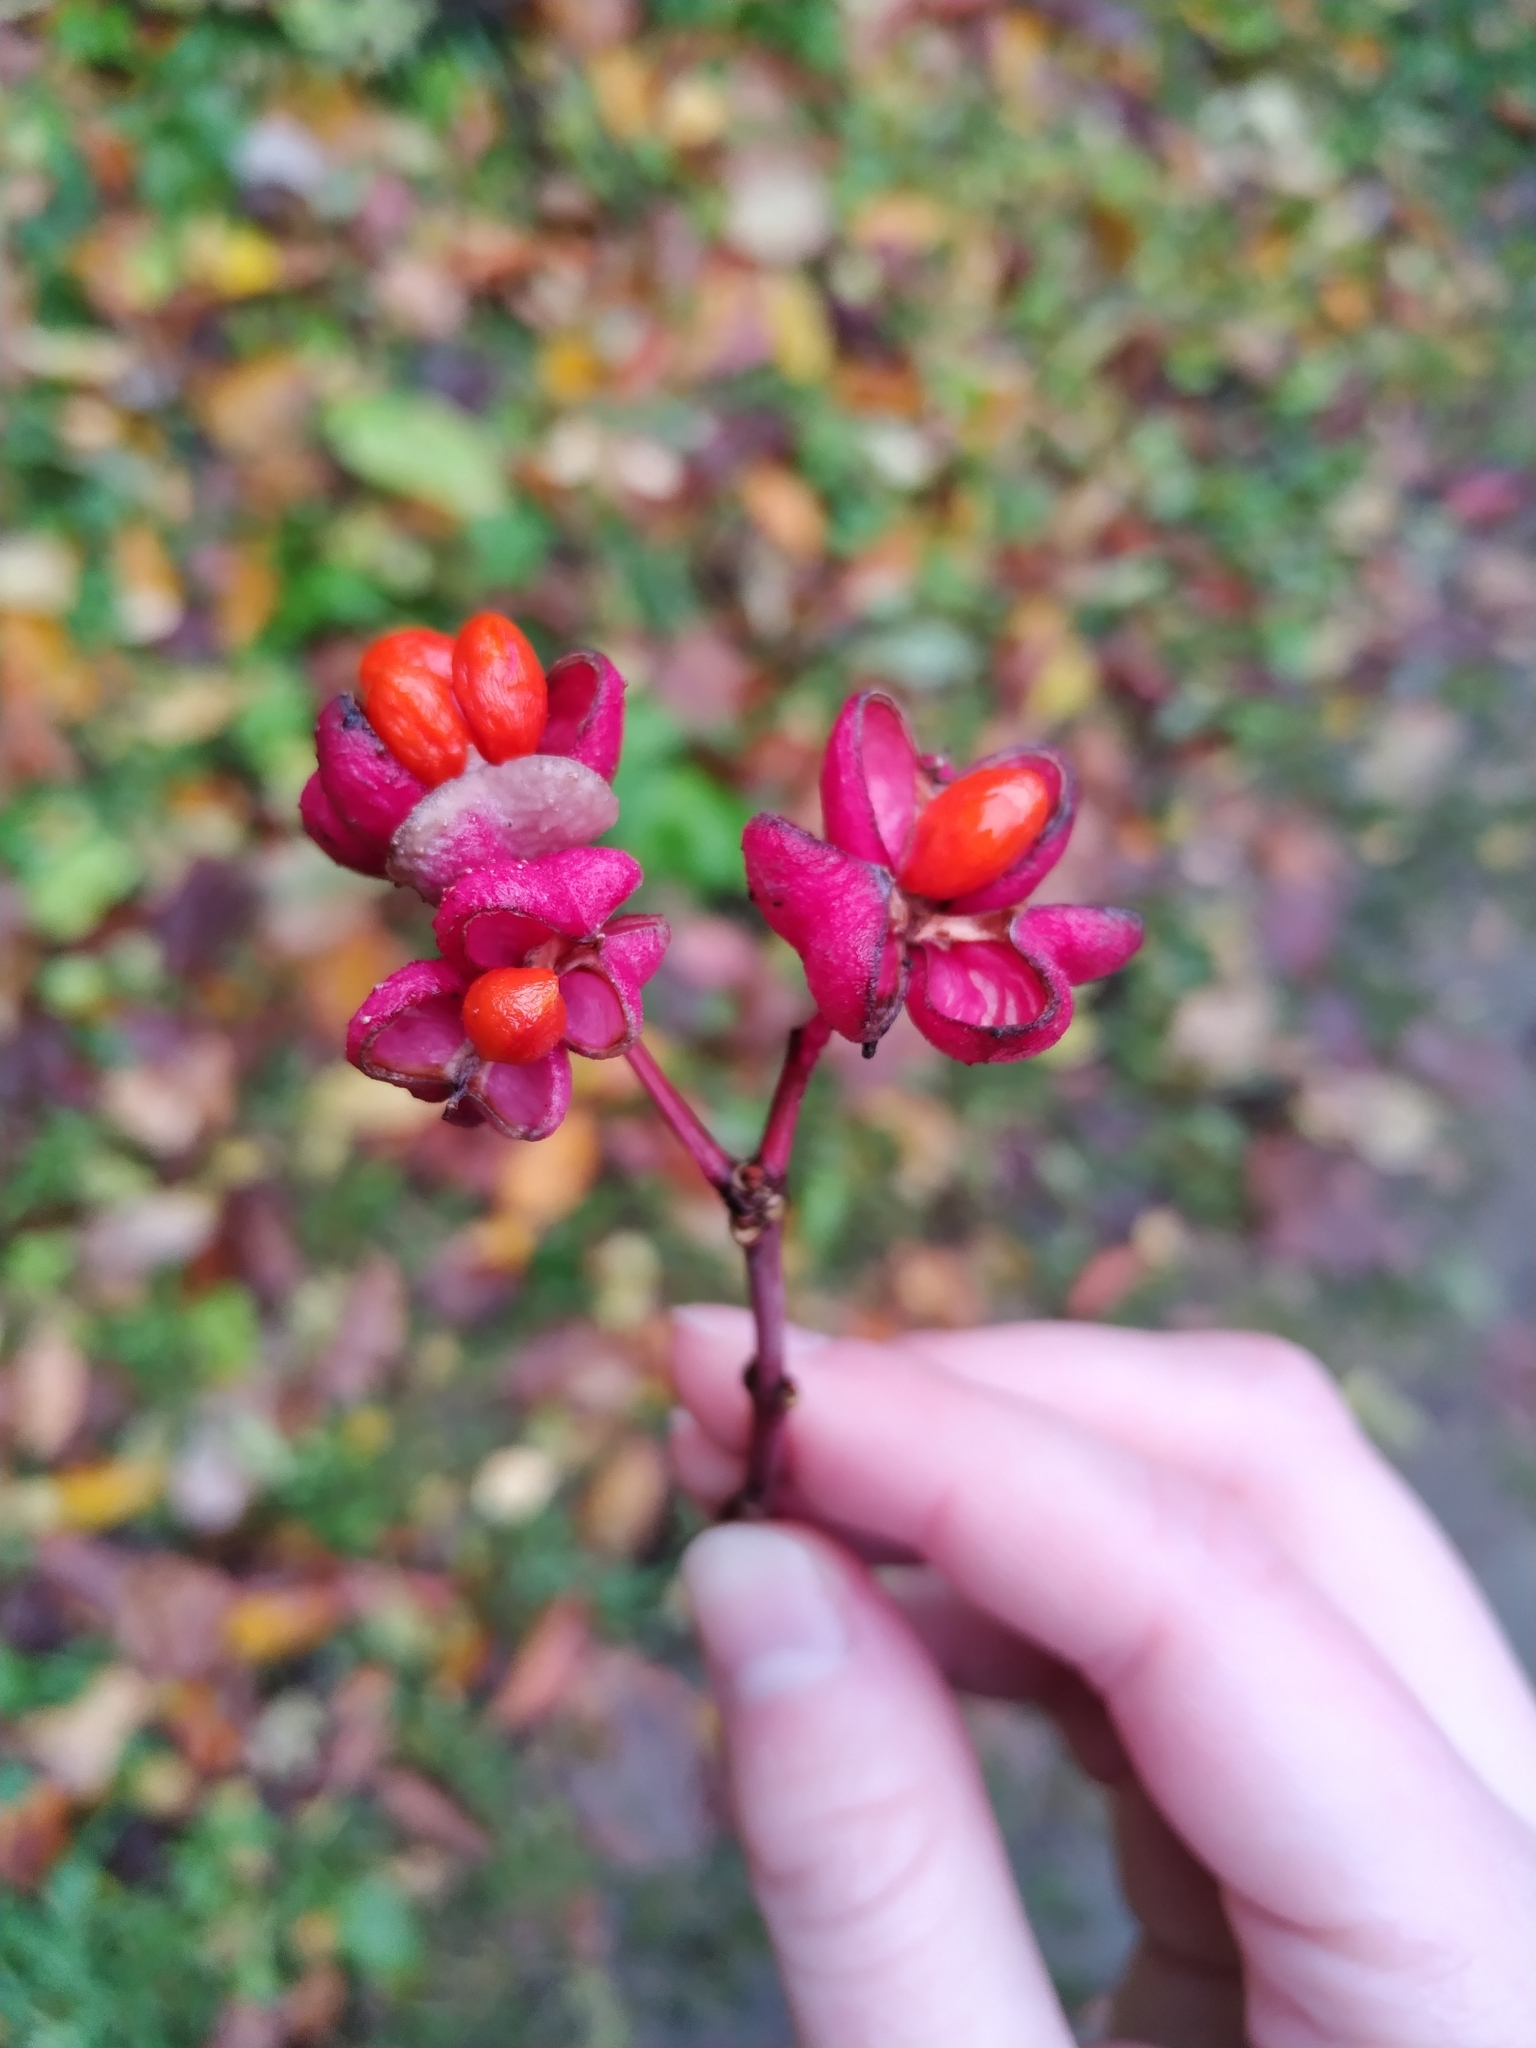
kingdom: Plantae
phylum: Tracheophyta
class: Magnoliopsida
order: Celastrales
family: Celastraceae
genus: Euonymus
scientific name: Euonymus europaeus
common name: Spindle
